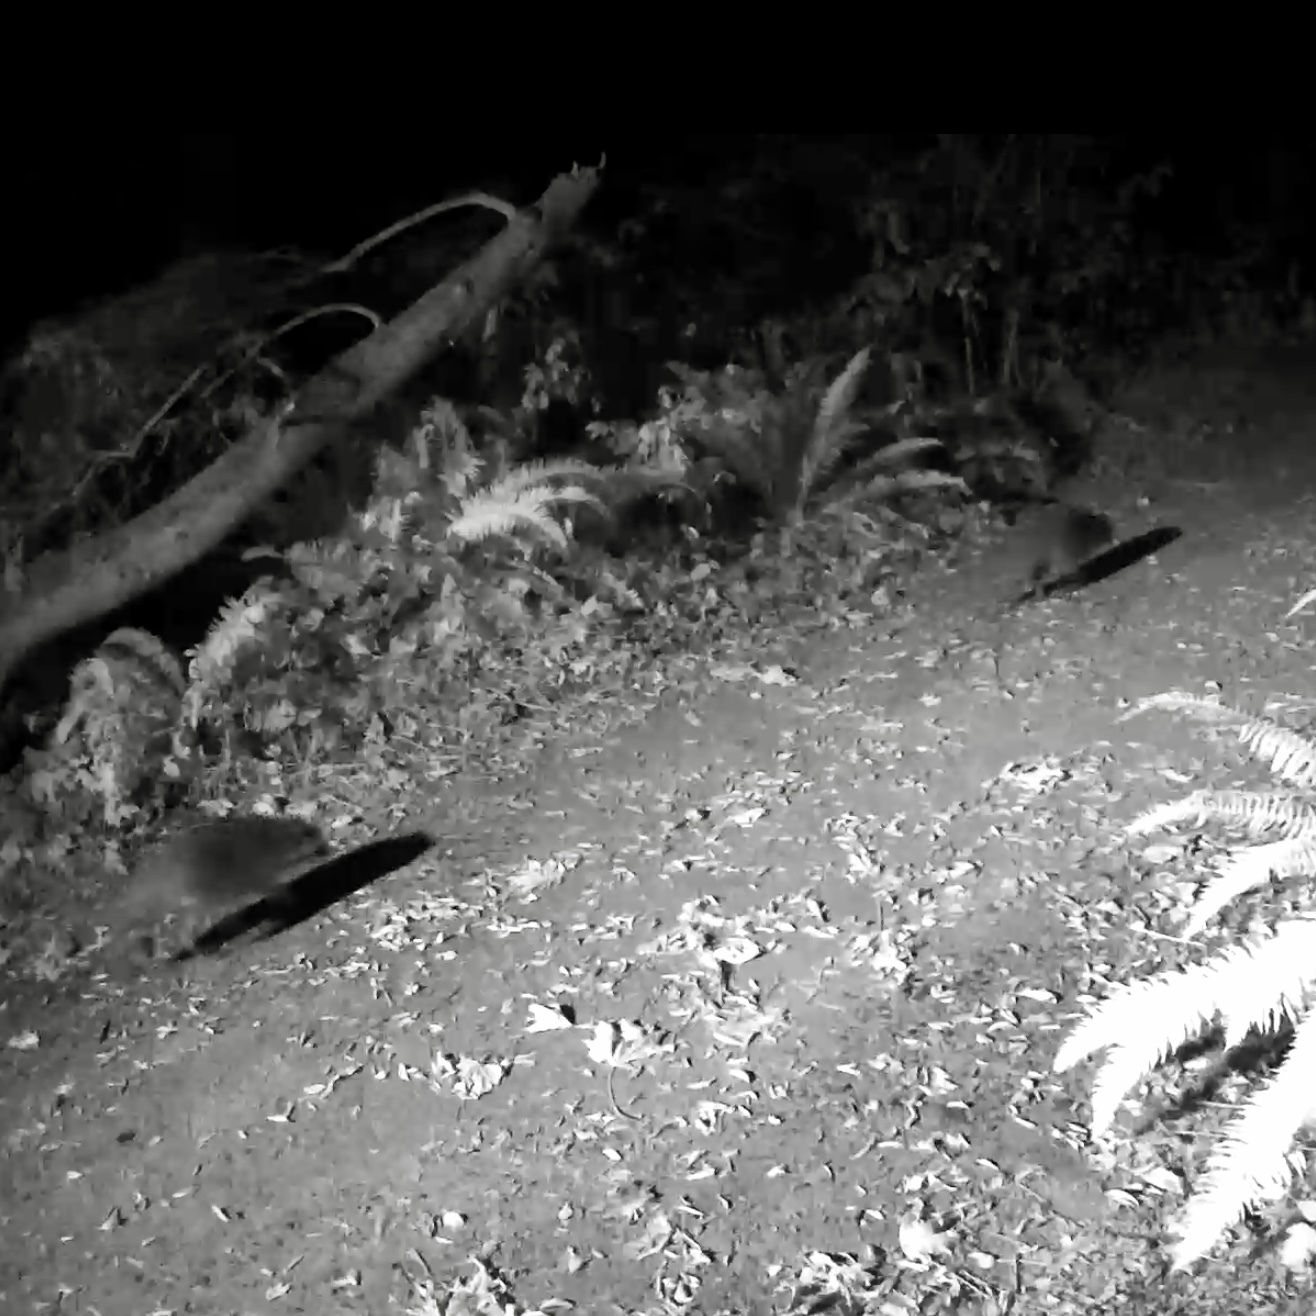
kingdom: Animalia
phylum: Chordata
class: Mammalia
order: Carnivora
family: Procyonidae
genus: Procyon
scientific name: Procyon lotor
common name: Raccoon
